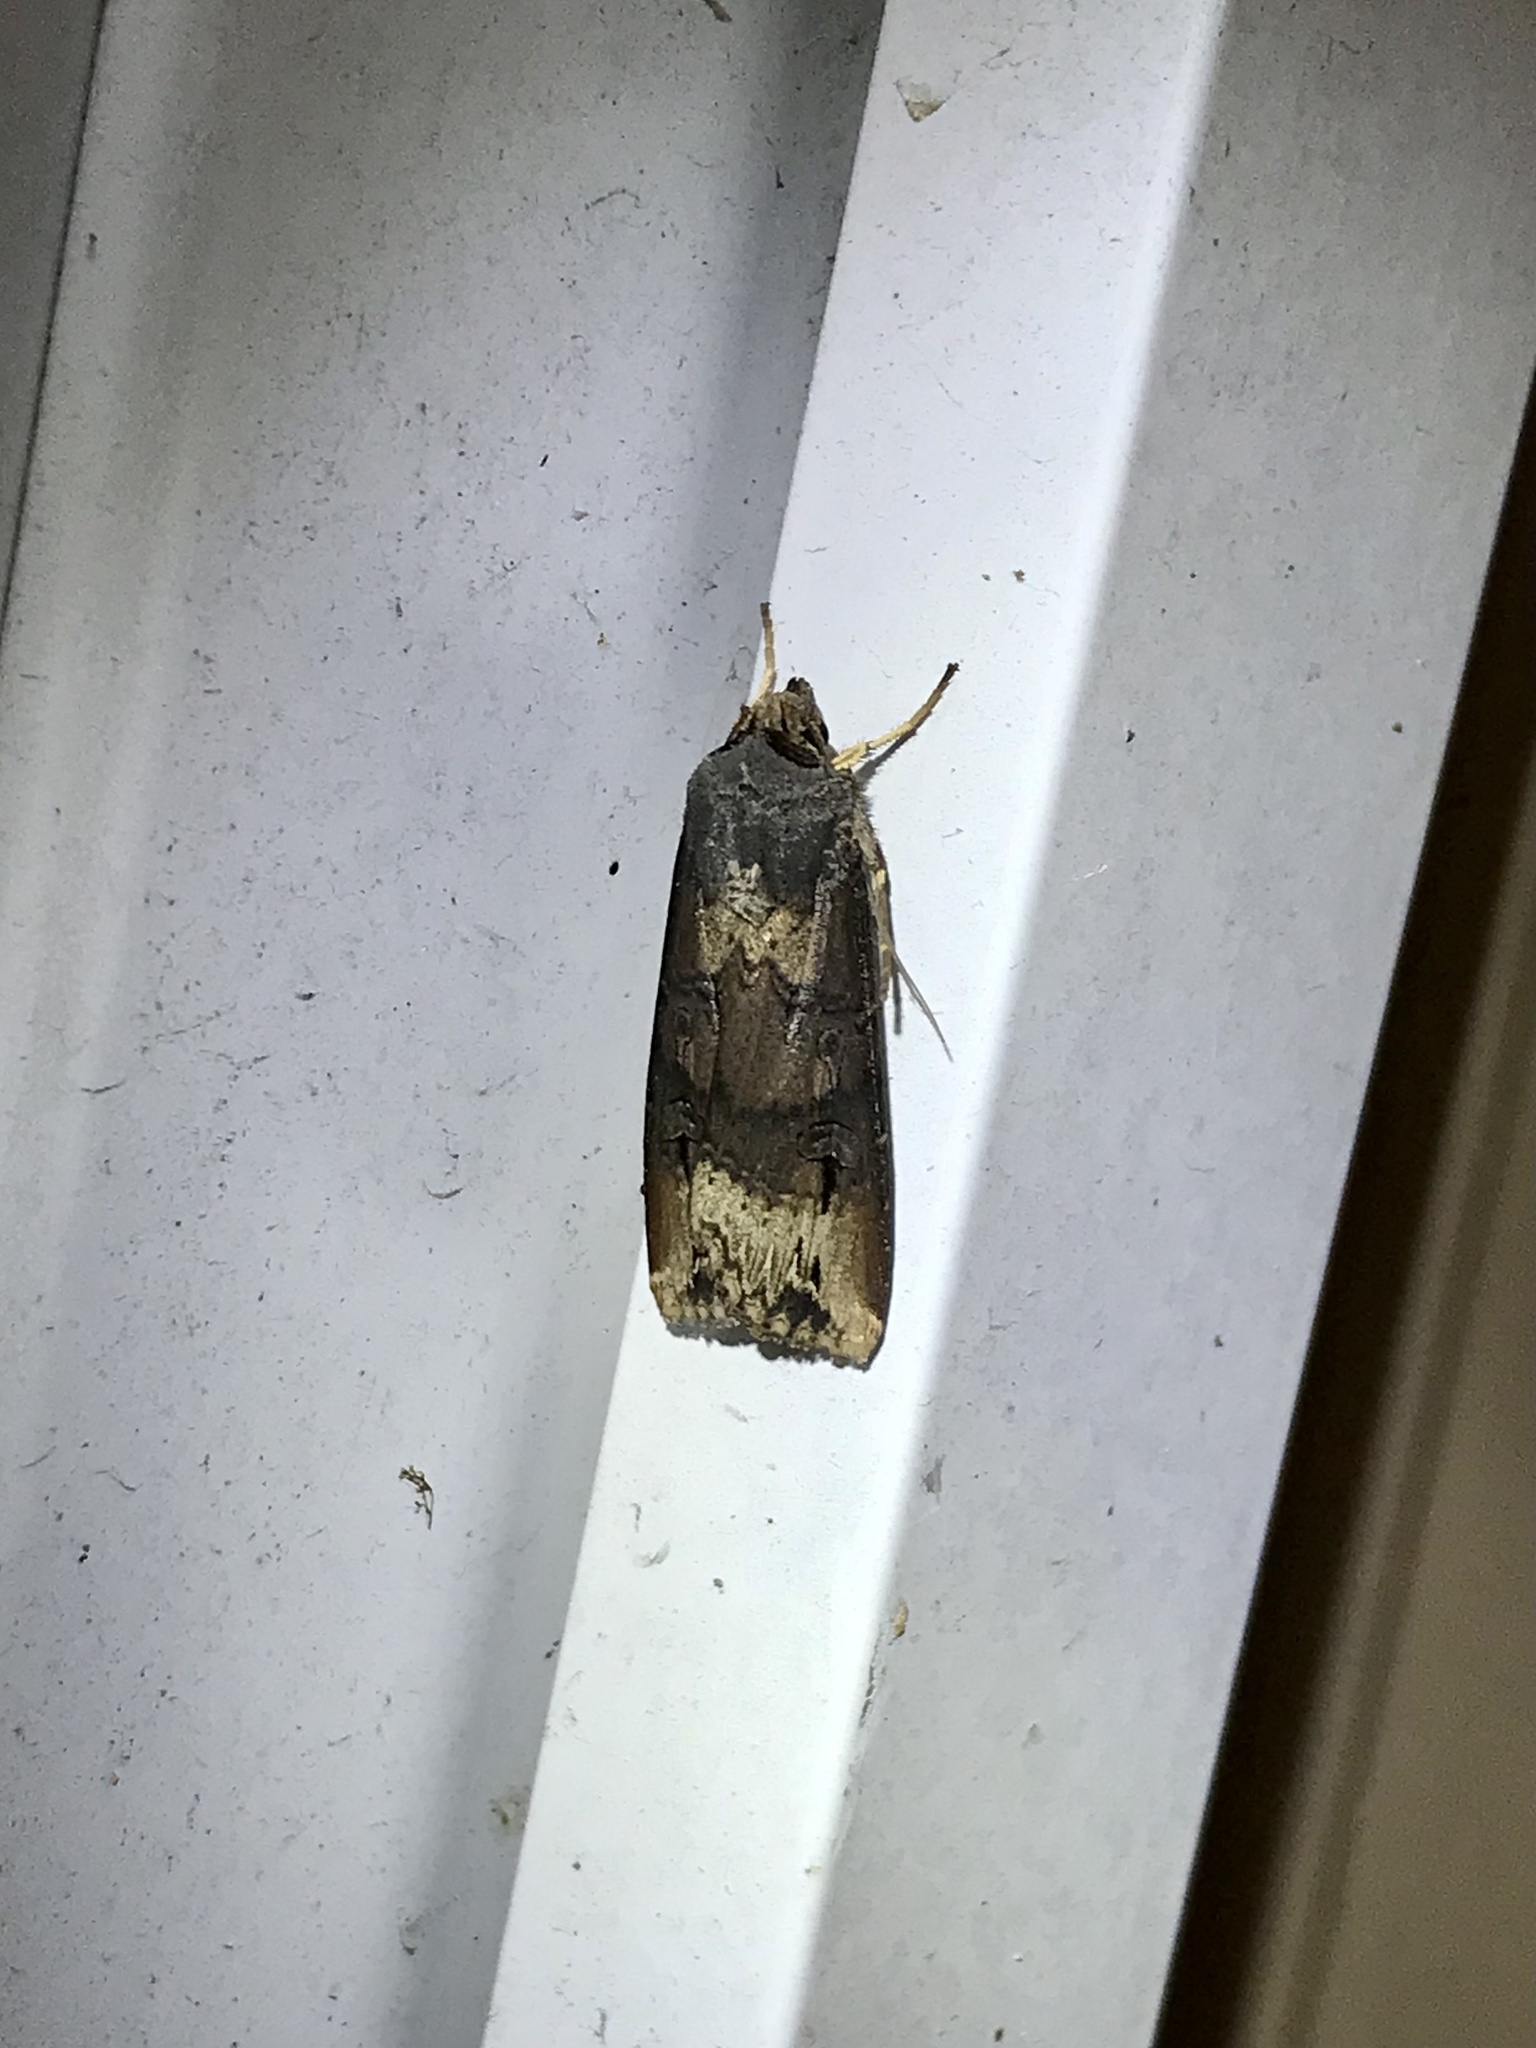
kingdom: Animalia
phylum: Arthropoda
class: Insecta
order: Lepidoptera
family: Noctuidae
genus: Agrotis
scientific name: Agrotis ipsilon
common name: Dark sword-grass
